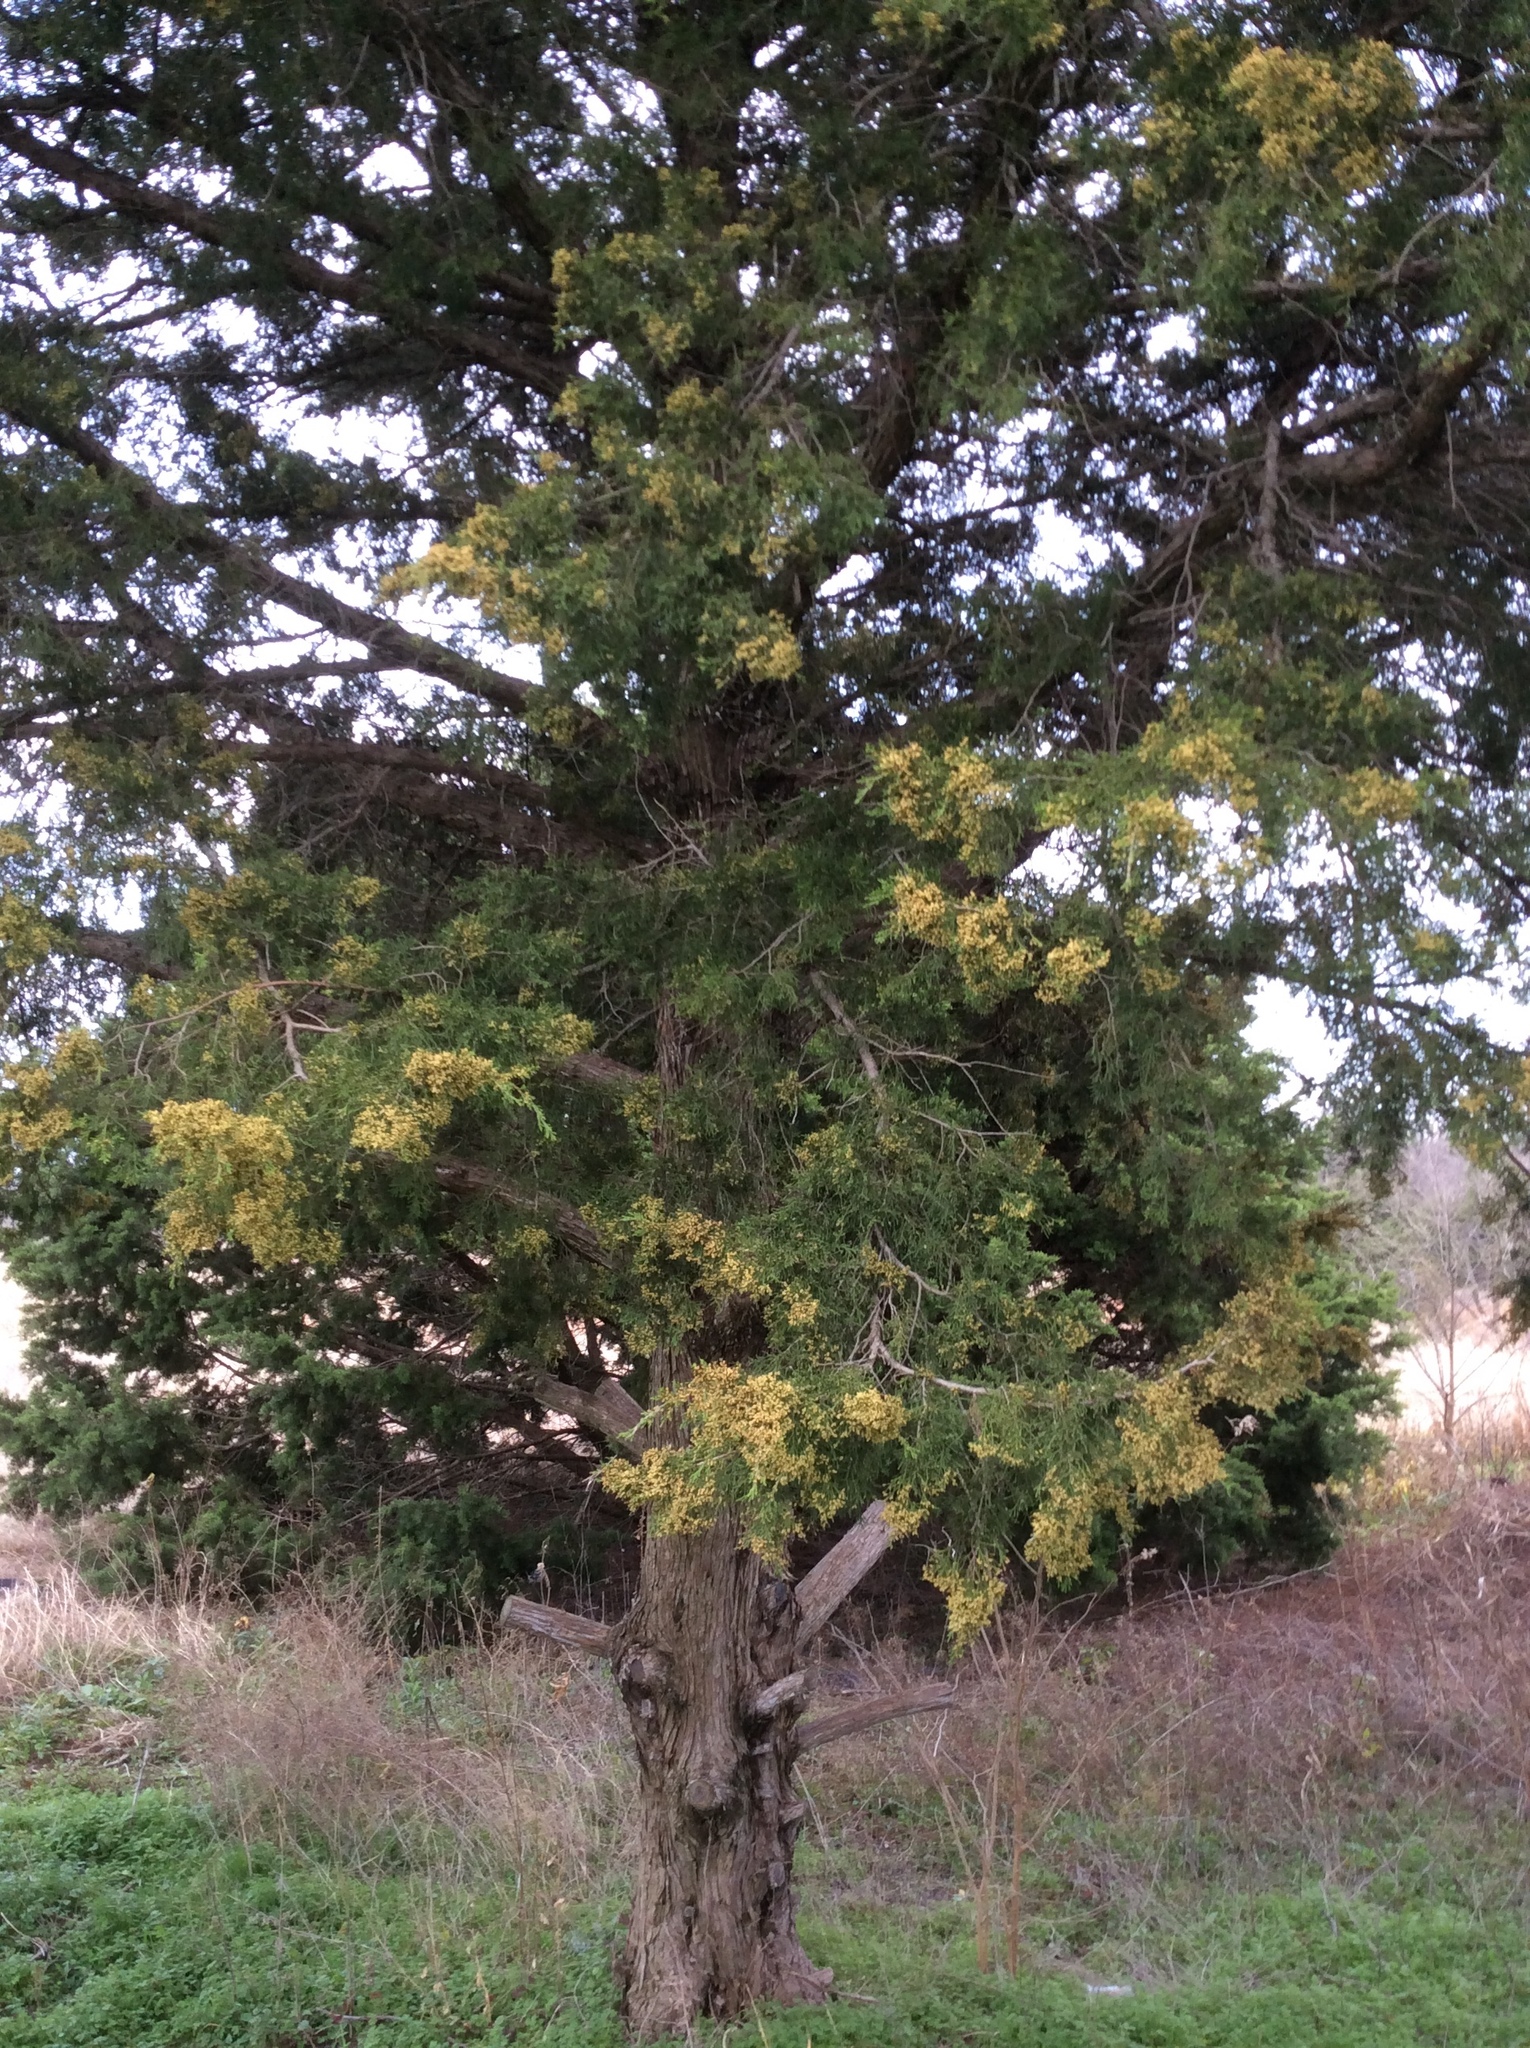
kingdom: Plantae
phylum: Tracheophyta
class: Pinopsida
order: Pinales
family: Cupressaceae
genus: Juniperus
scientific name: Juniperus virginiana
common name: Red juniper
